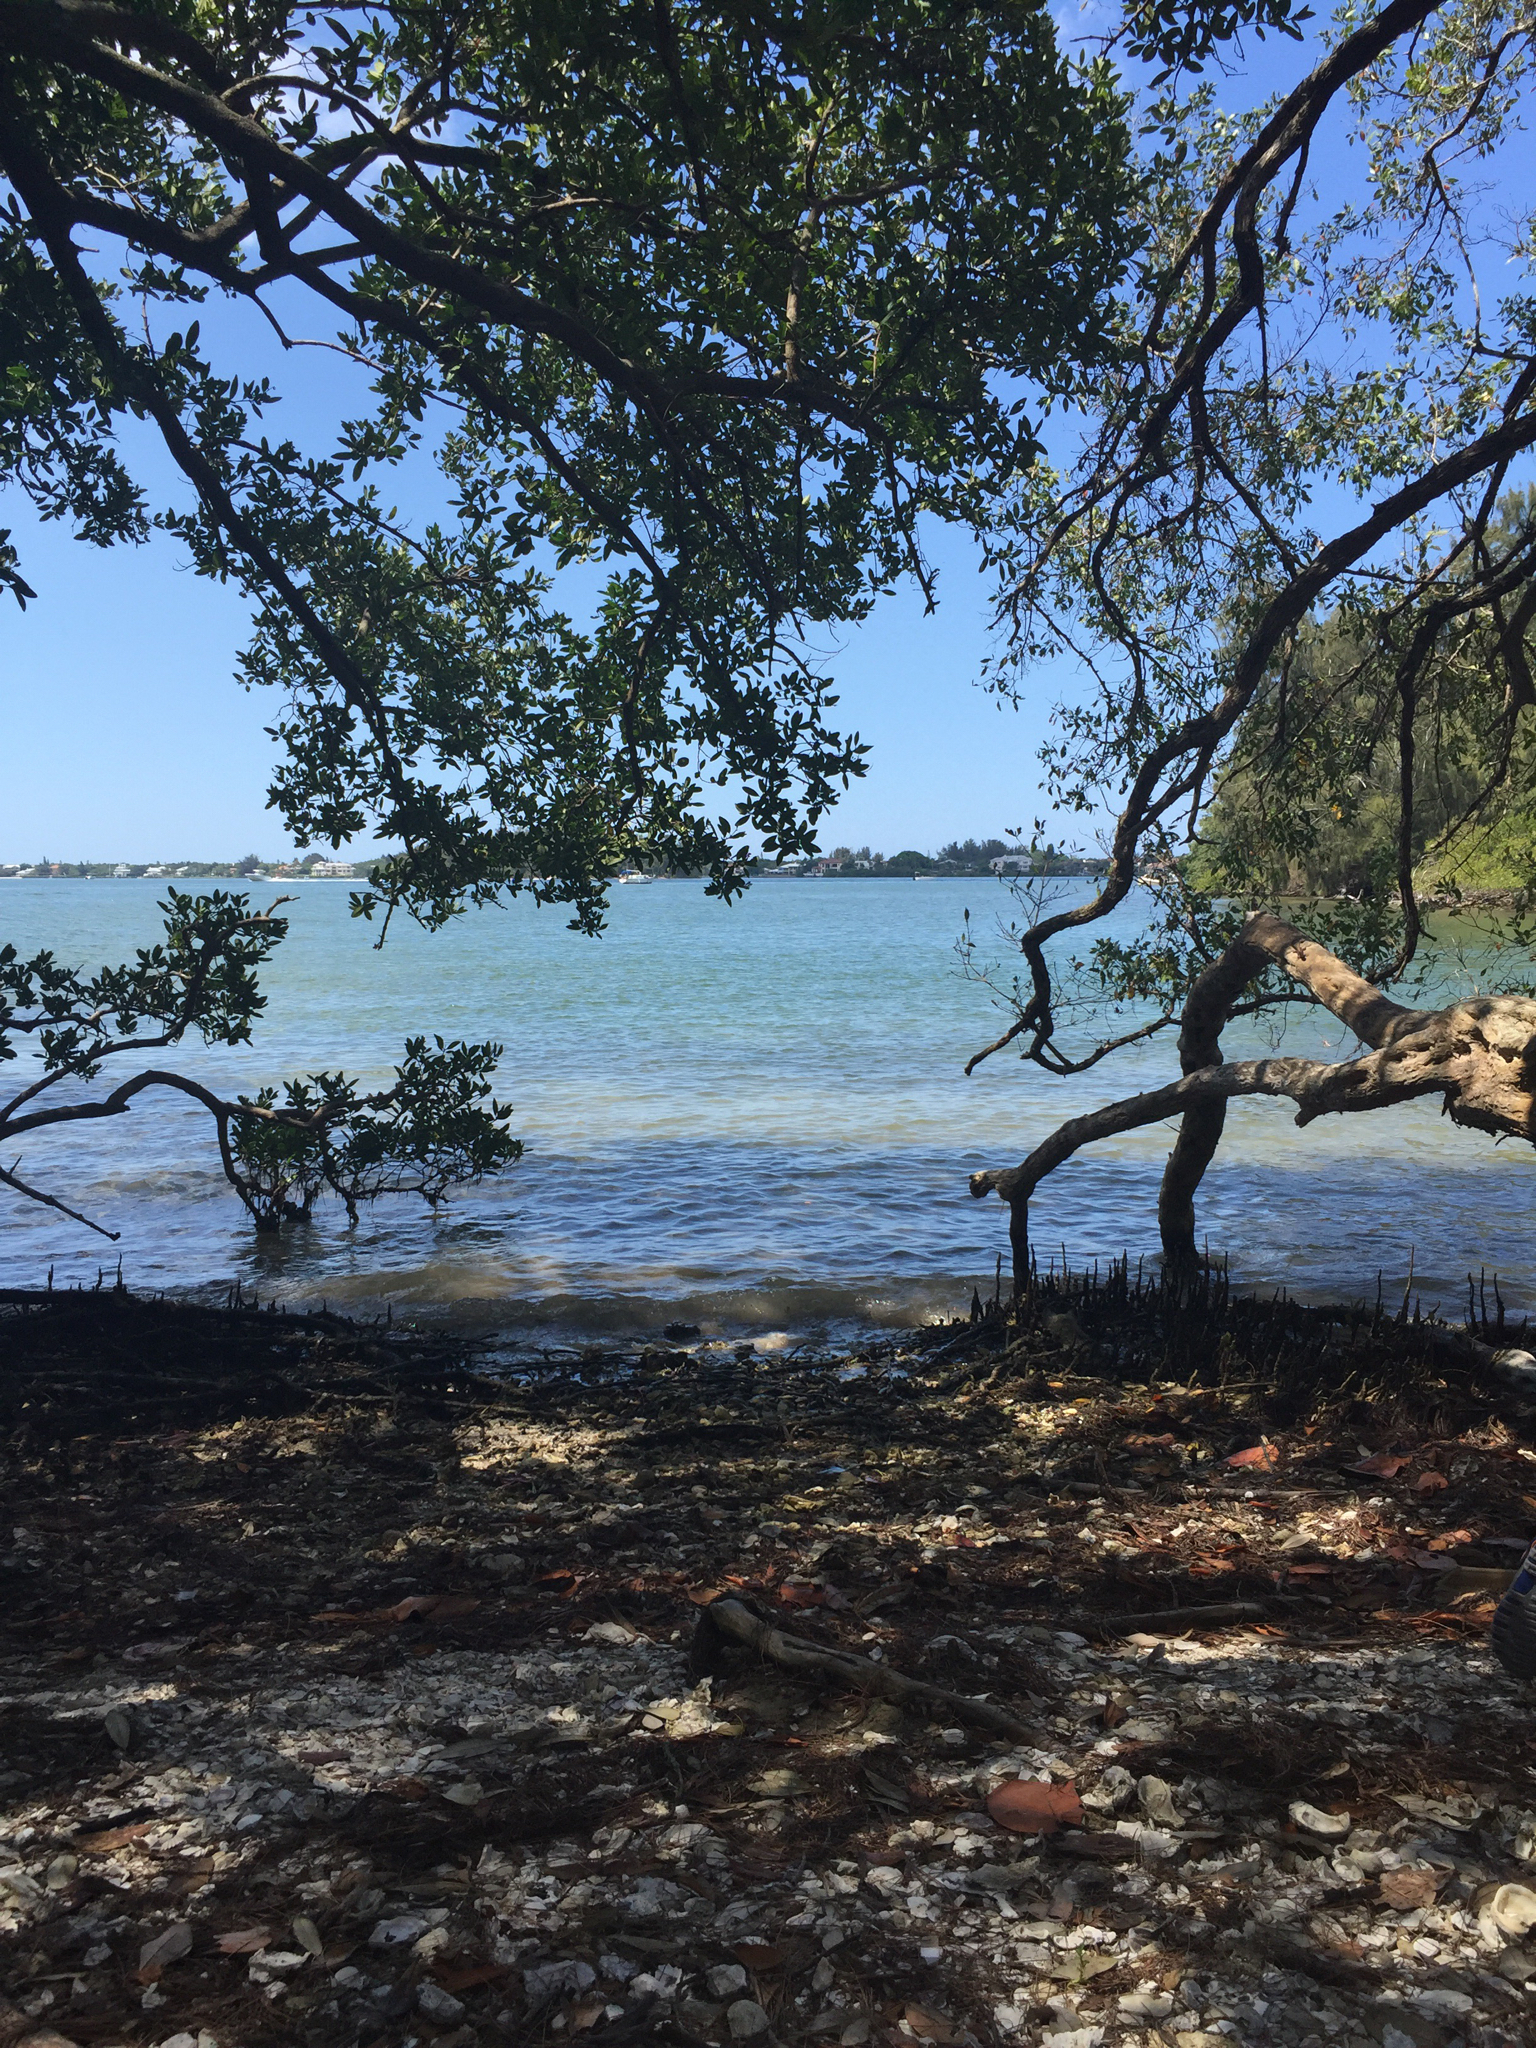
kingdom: Plantae
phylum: Tracheophyta
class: Magnoliopsida
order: Lamiales
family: Acanthaceae
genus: Avicennia
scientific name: Avicennia germinans
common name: Black mangrove
